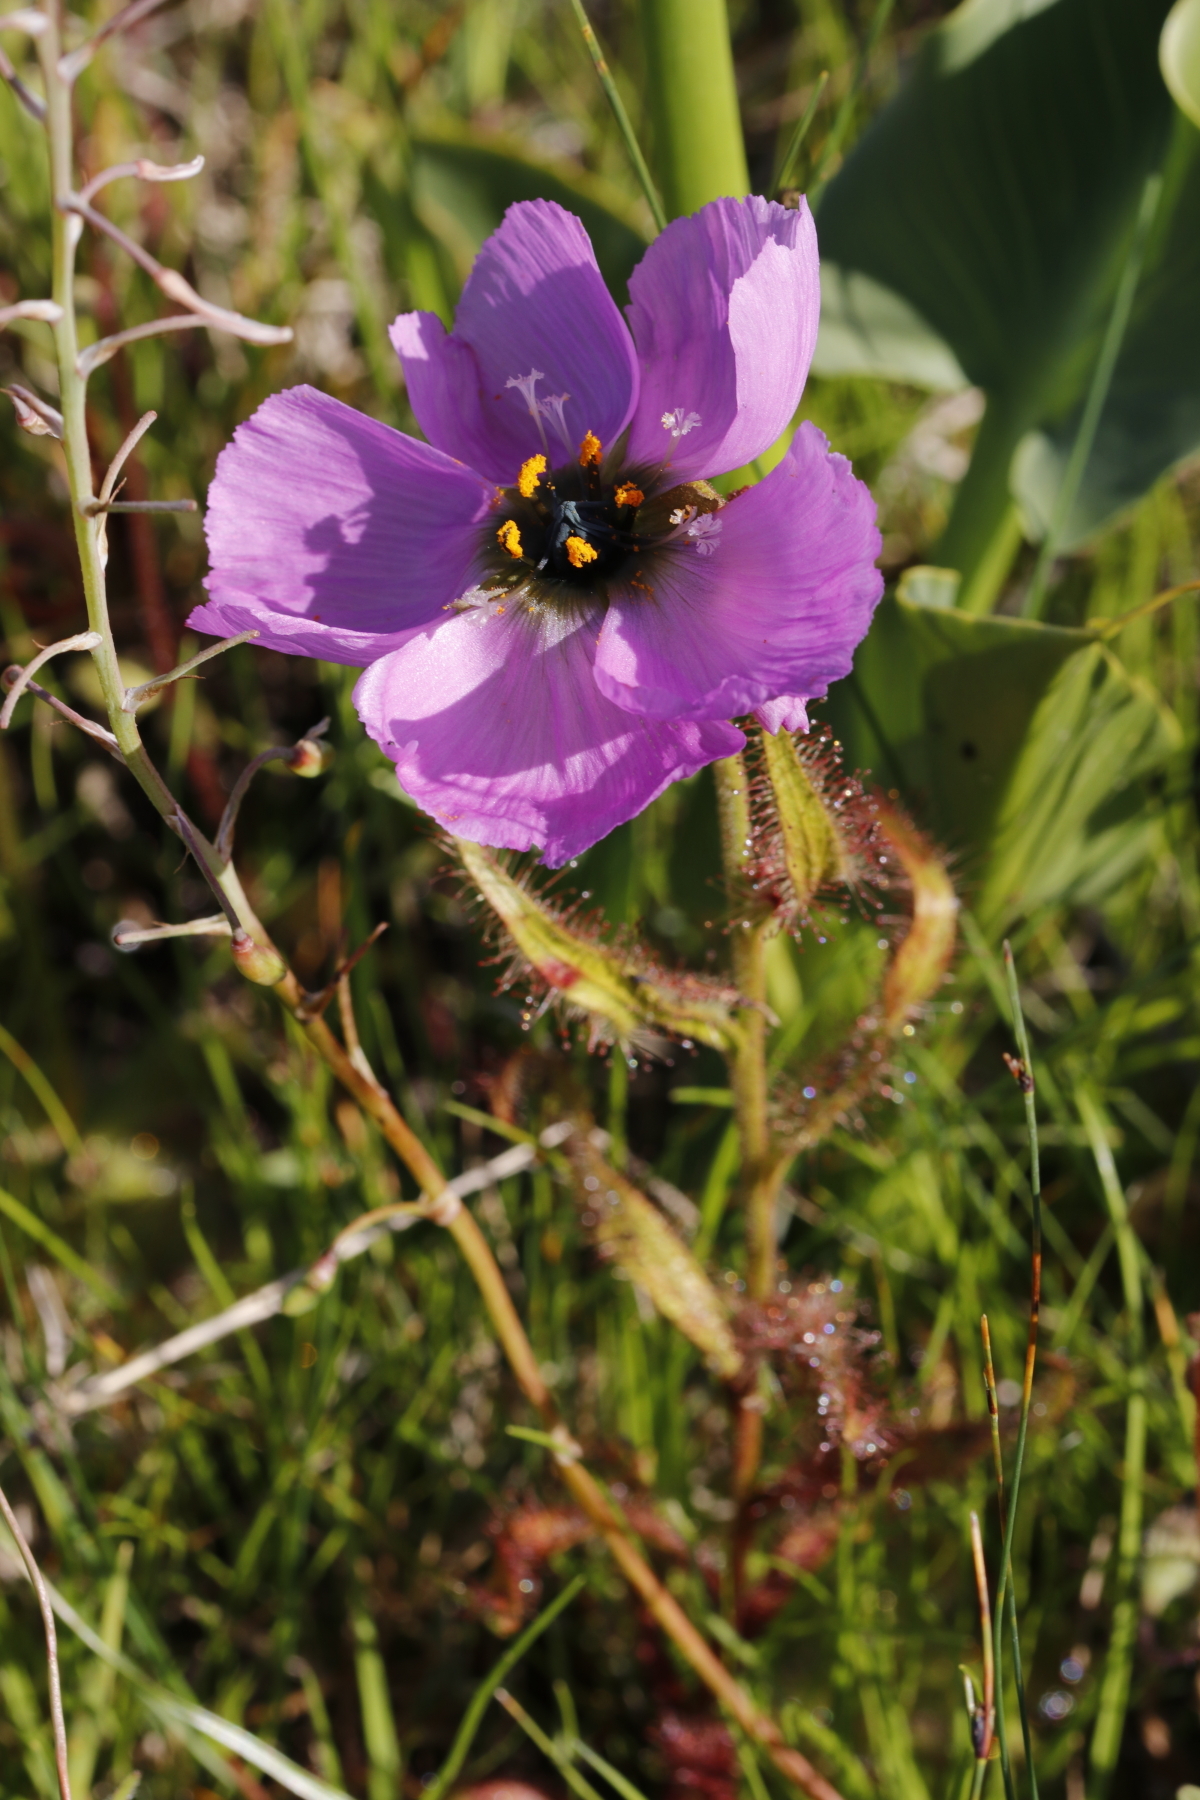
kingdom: Plantae
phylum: Tracheophyta
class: Magnoliopsida
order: Caryophyllales
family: Droseraceae
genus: Drosera
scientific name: Drosera cistiflora
